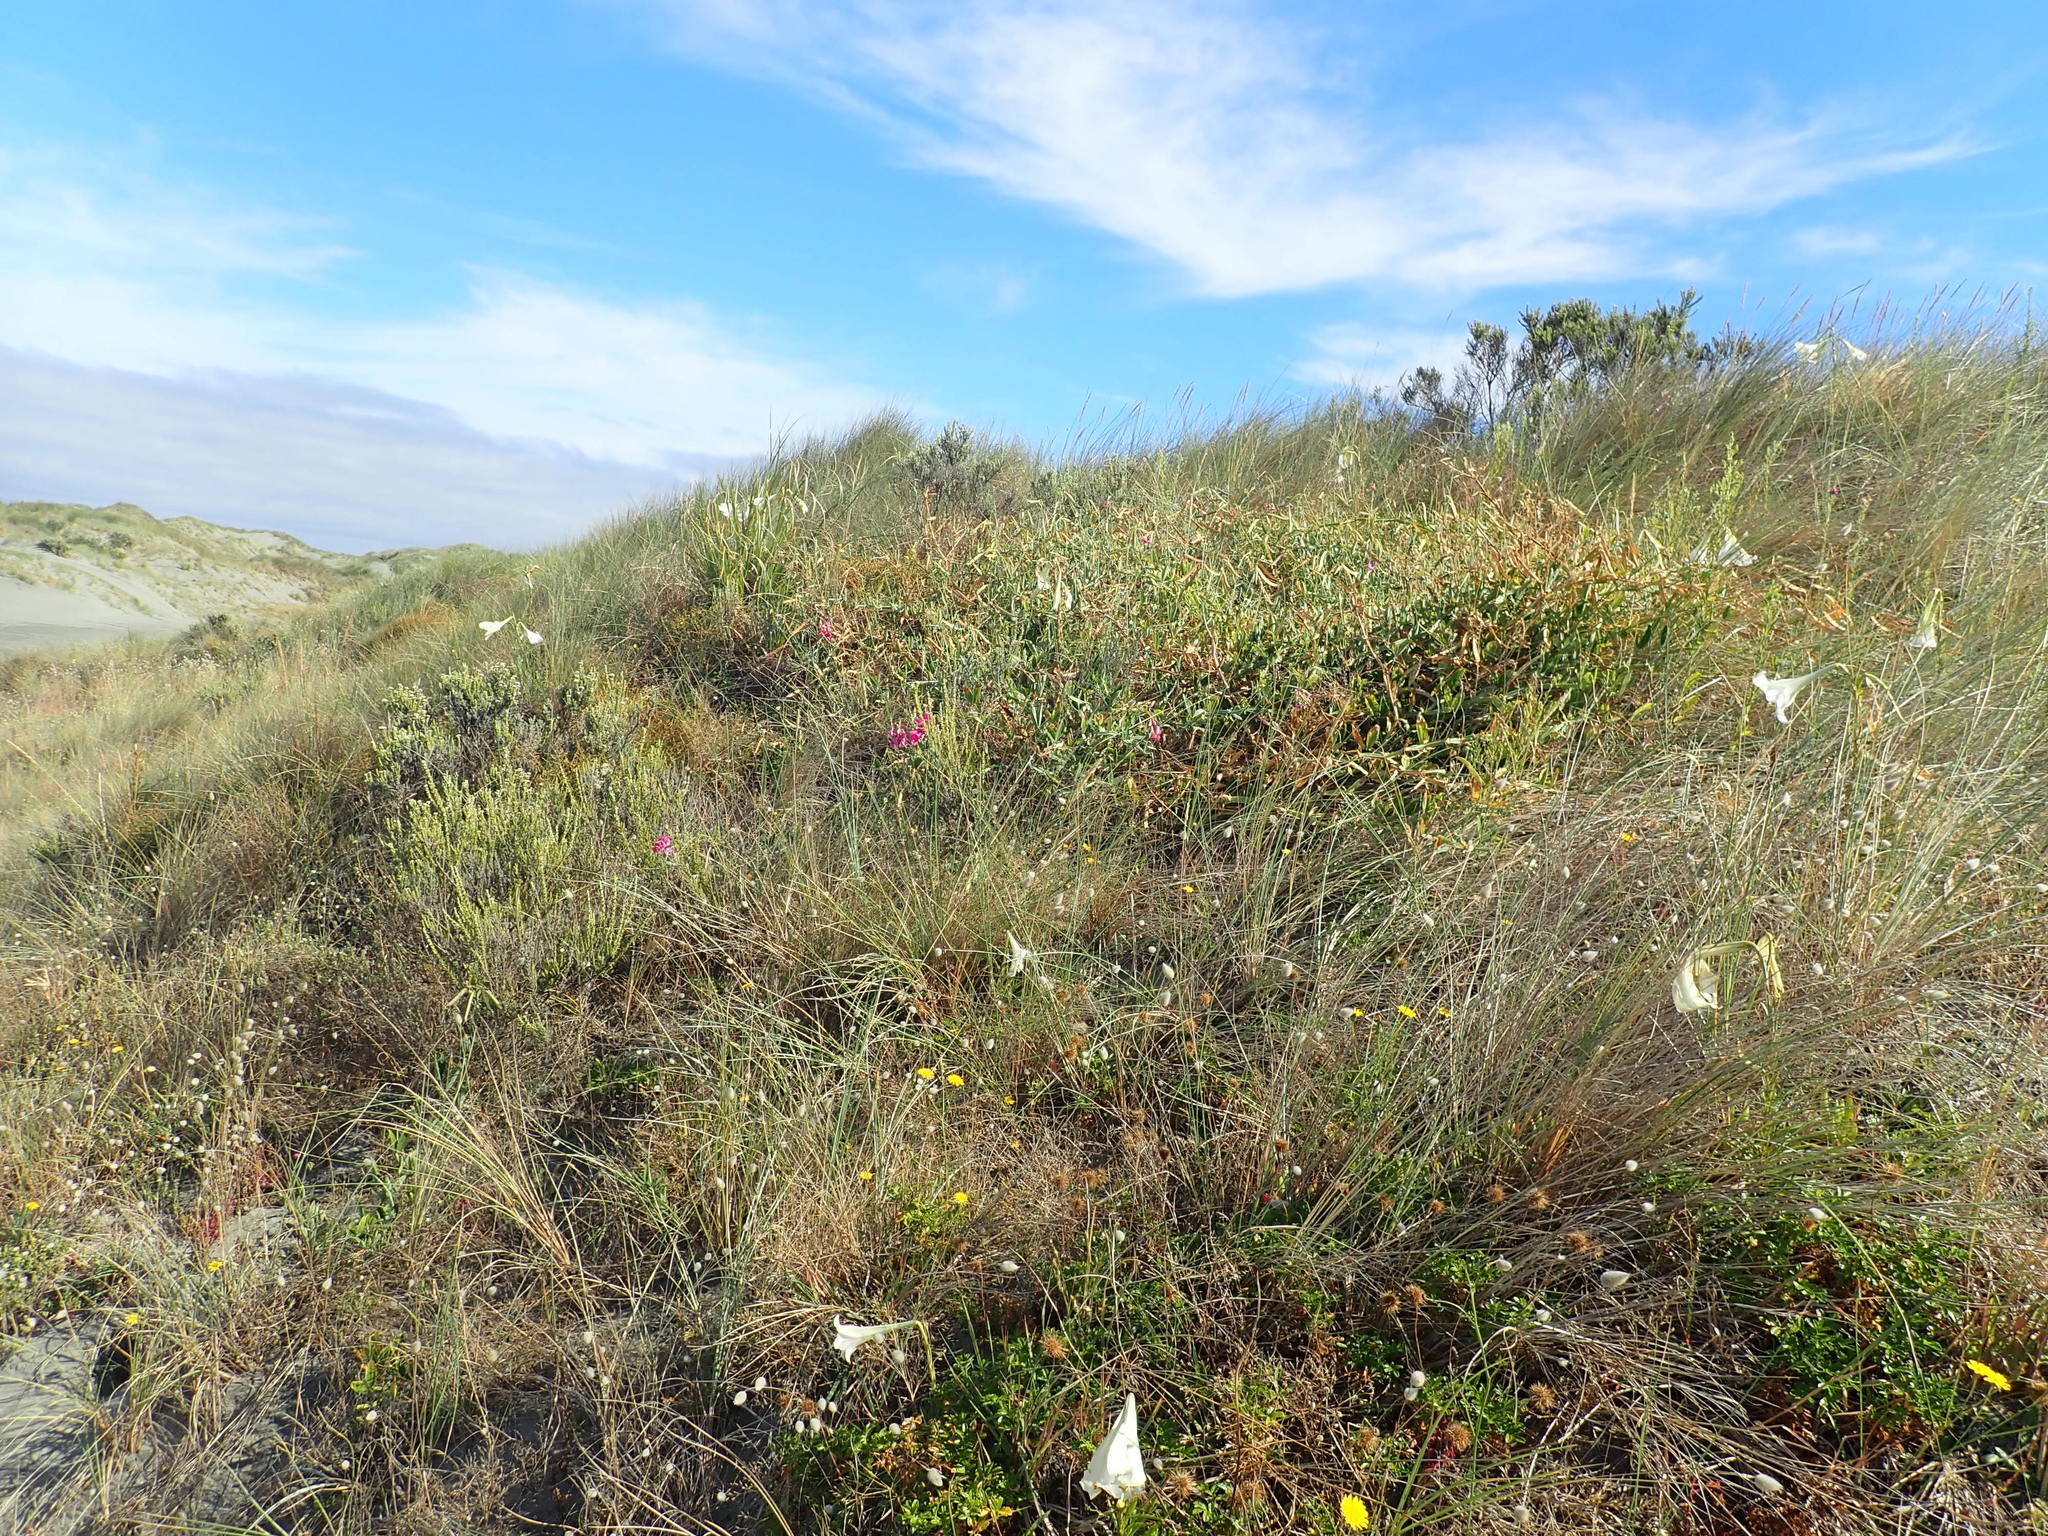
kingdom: Plantae
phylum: Tracheophyta
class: Magnoliopsida
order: Fabales
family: Fabaceae
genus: Lathyrus
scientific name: Lathyrus latifolius
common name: Perennial pea
